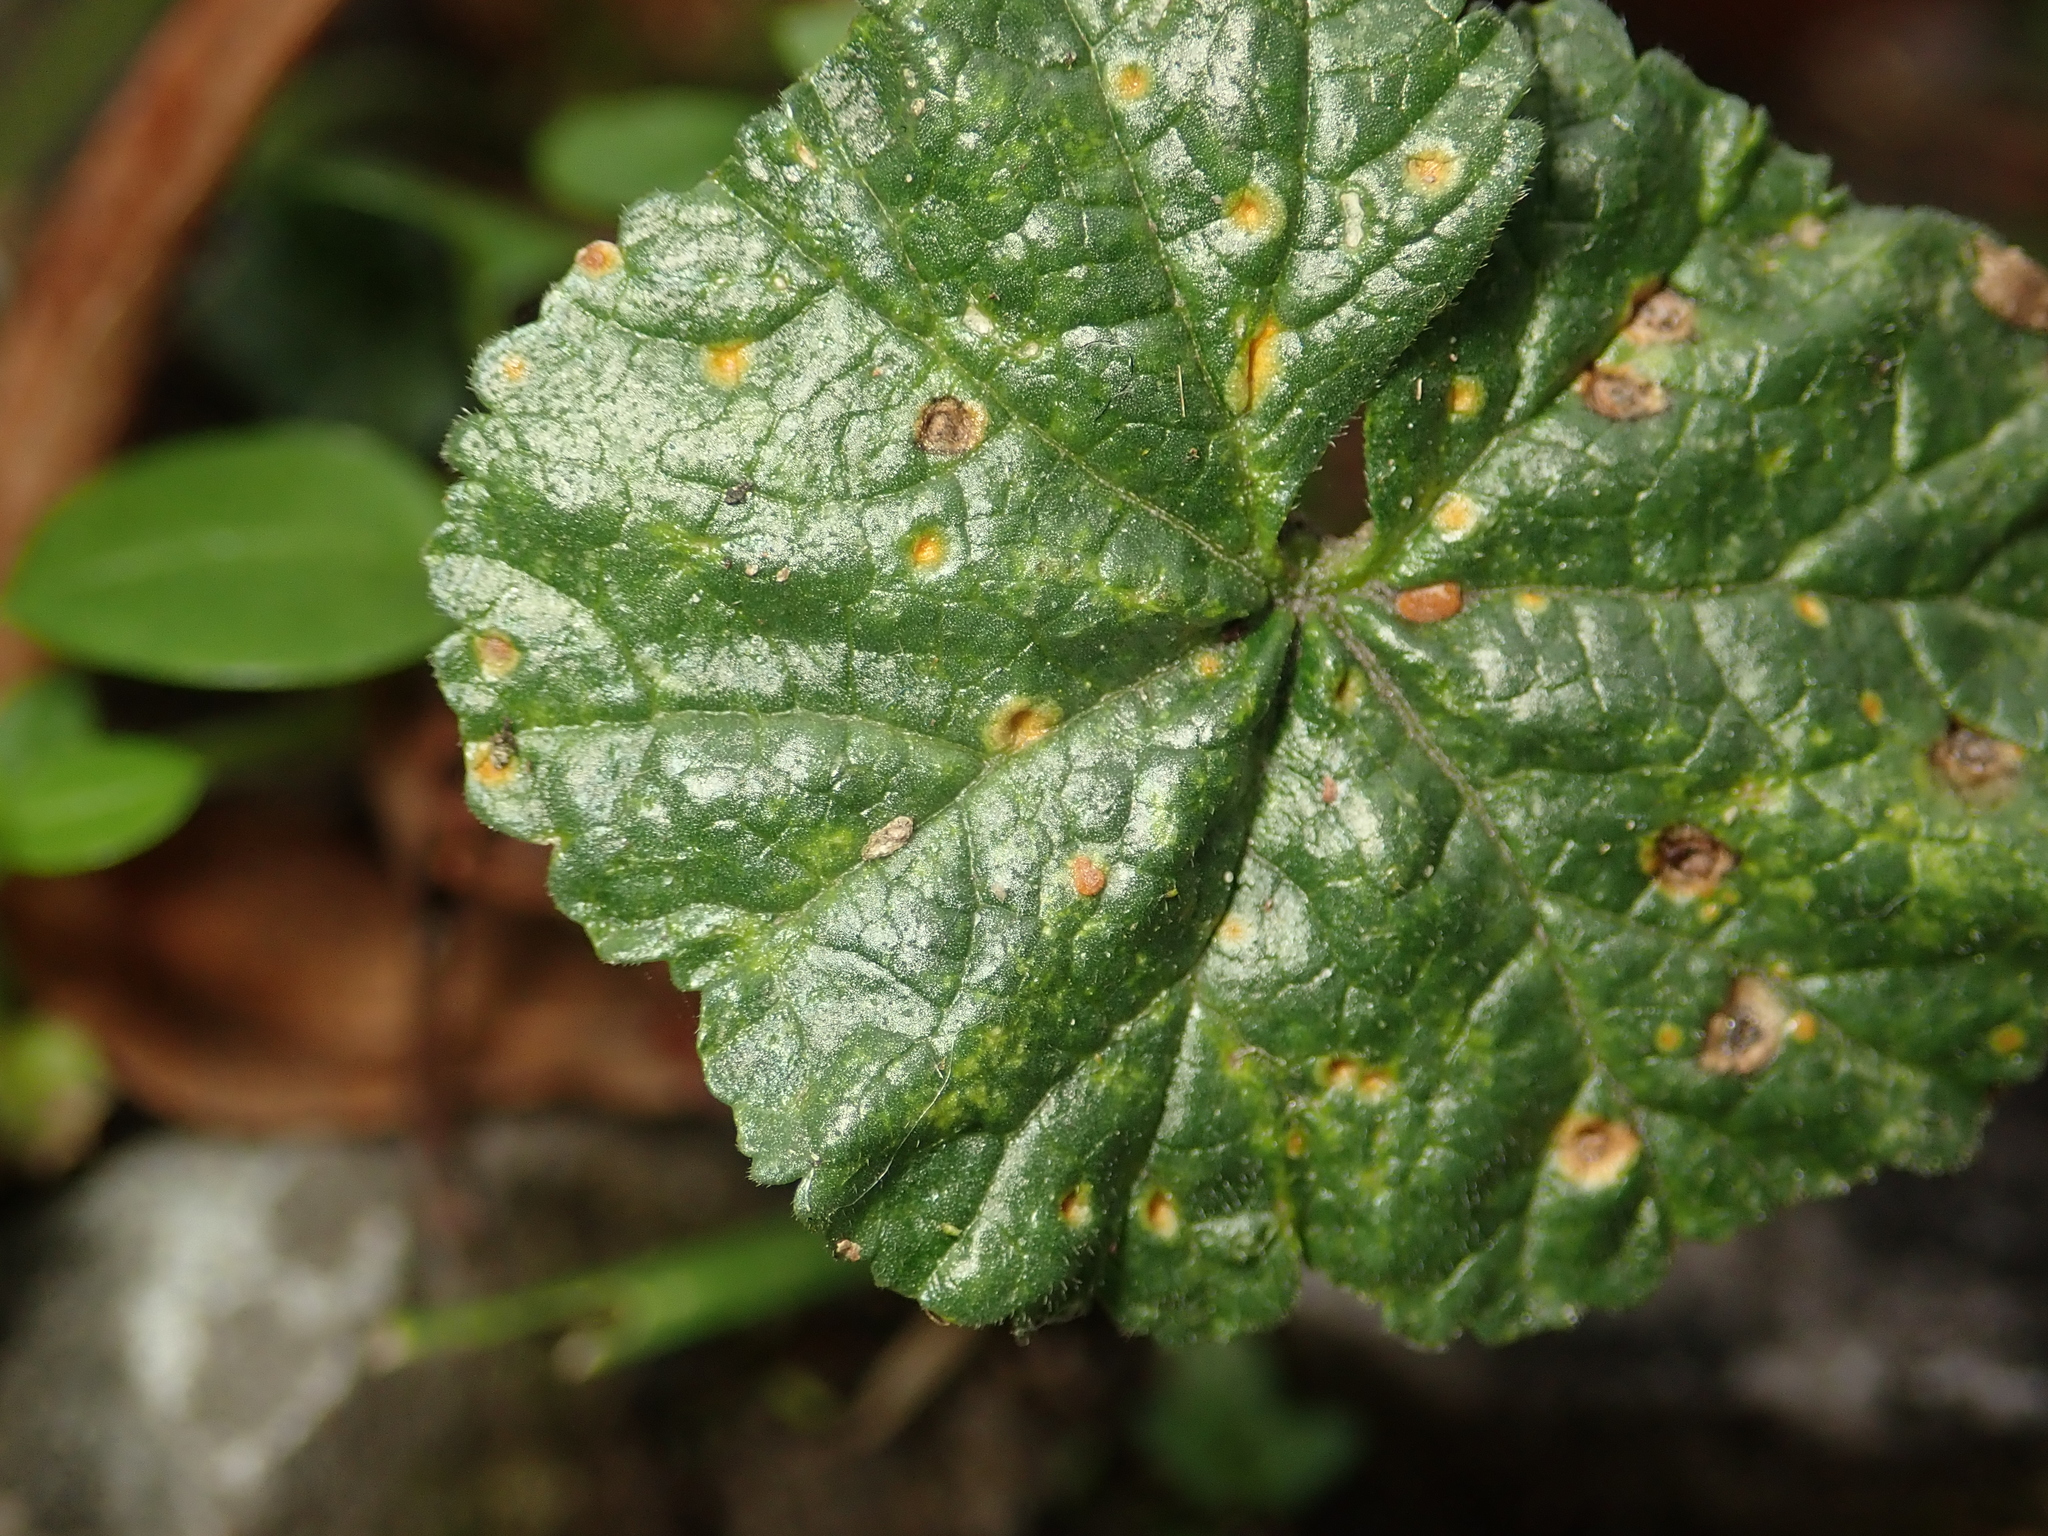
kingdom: Fungi
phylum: Basidiomycota
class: Pucciniomycetes
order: Pucciniales
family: Pucciniaceae
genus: Puccinia
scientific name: Puccinia malvacearum
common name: Hollyhock rust
